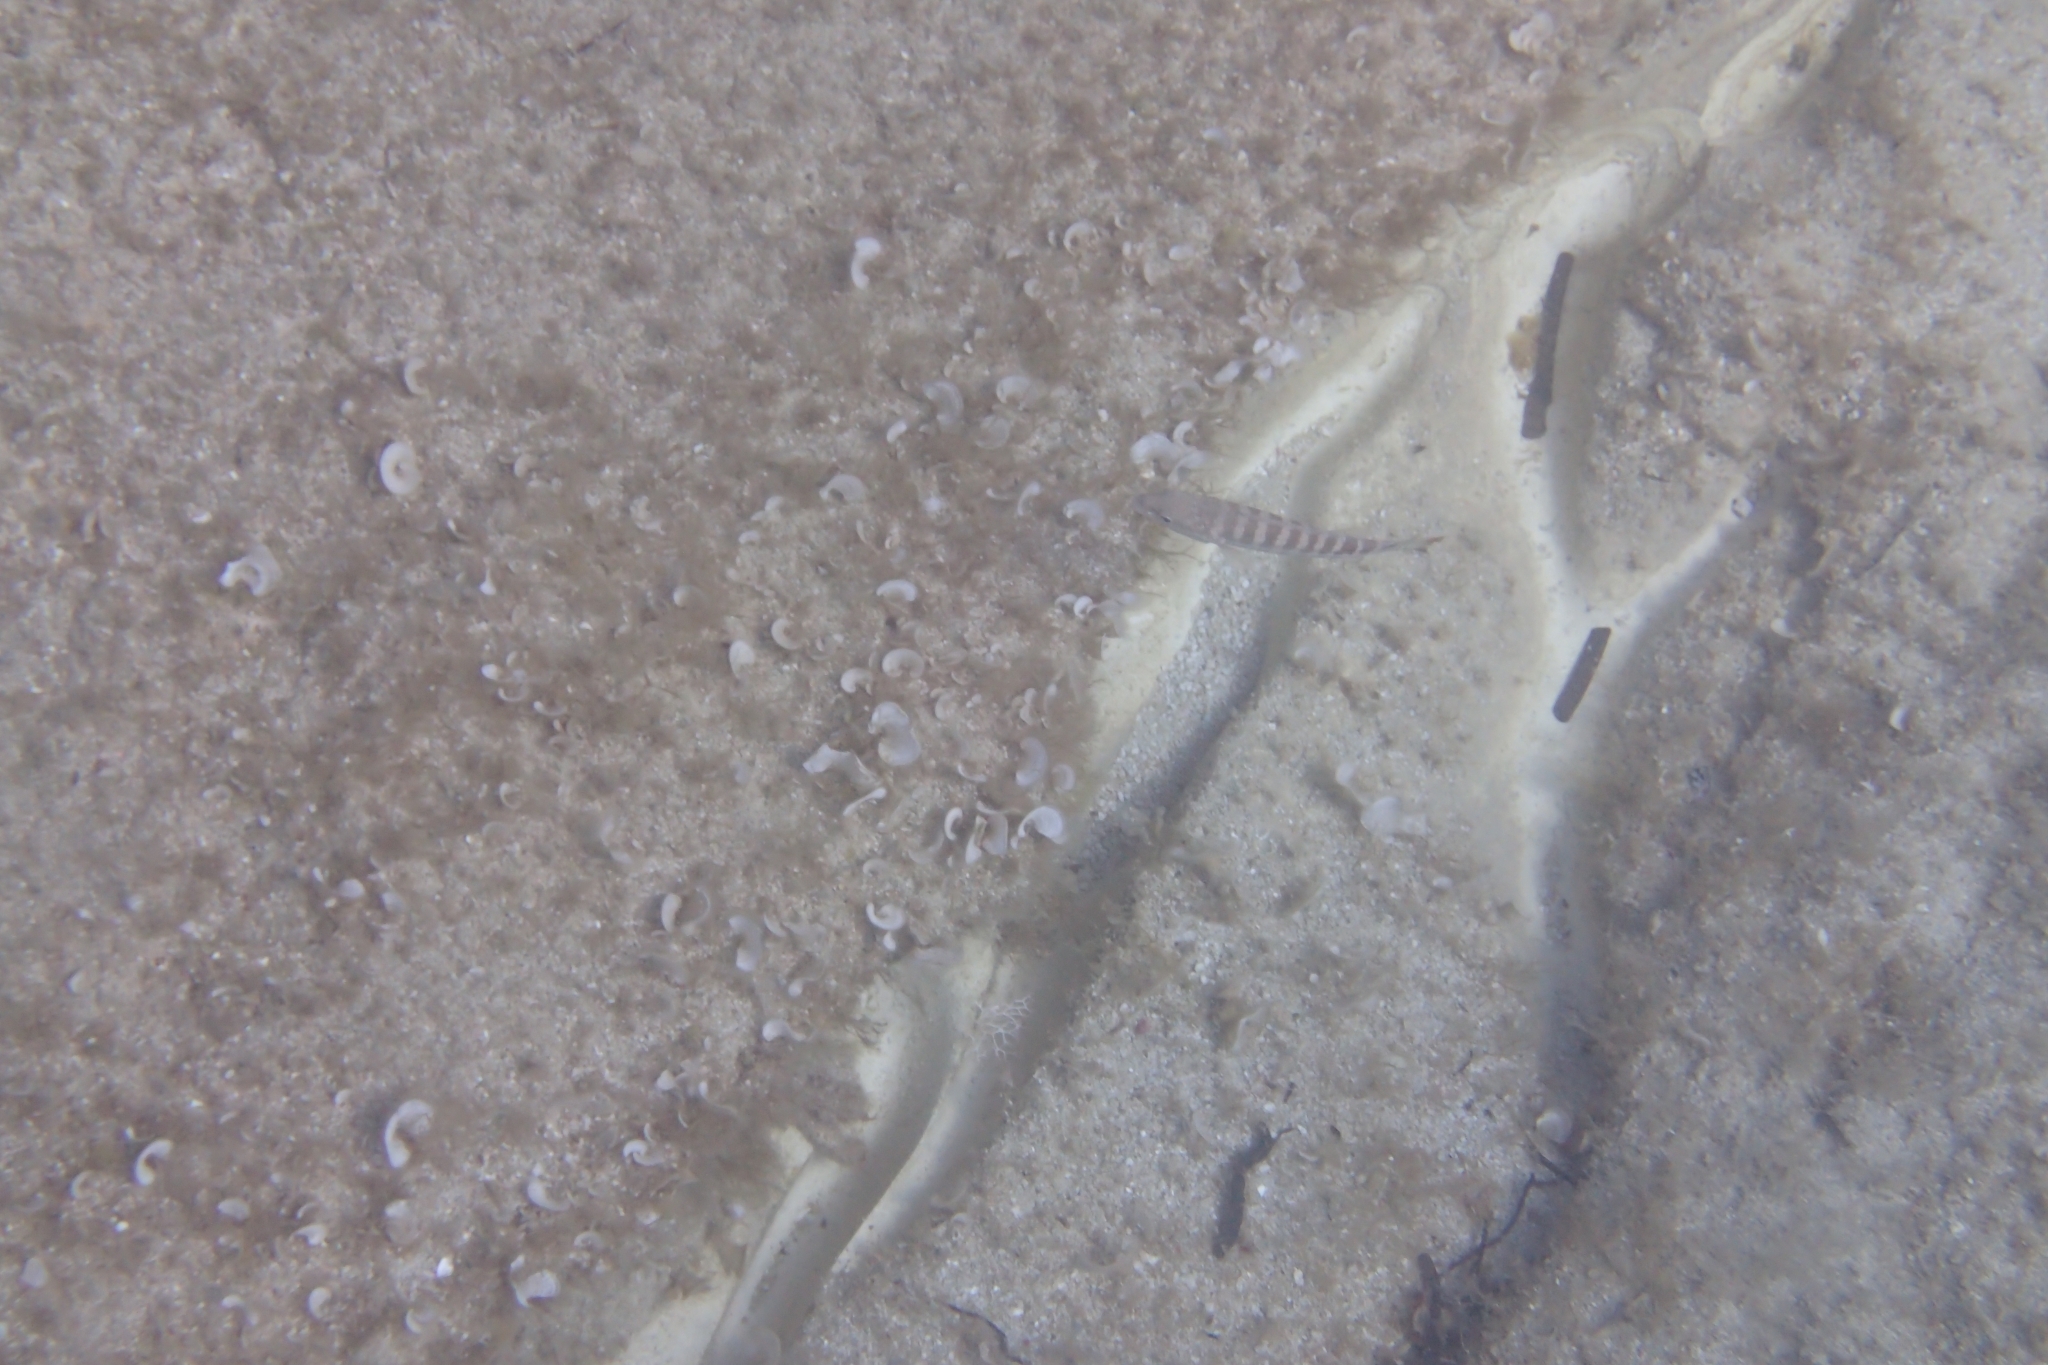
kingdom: Animalia
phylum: Chordata
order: Perciformes
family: Serranidae
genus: Serranus
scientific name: Serranus cabrilla
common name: Comber
